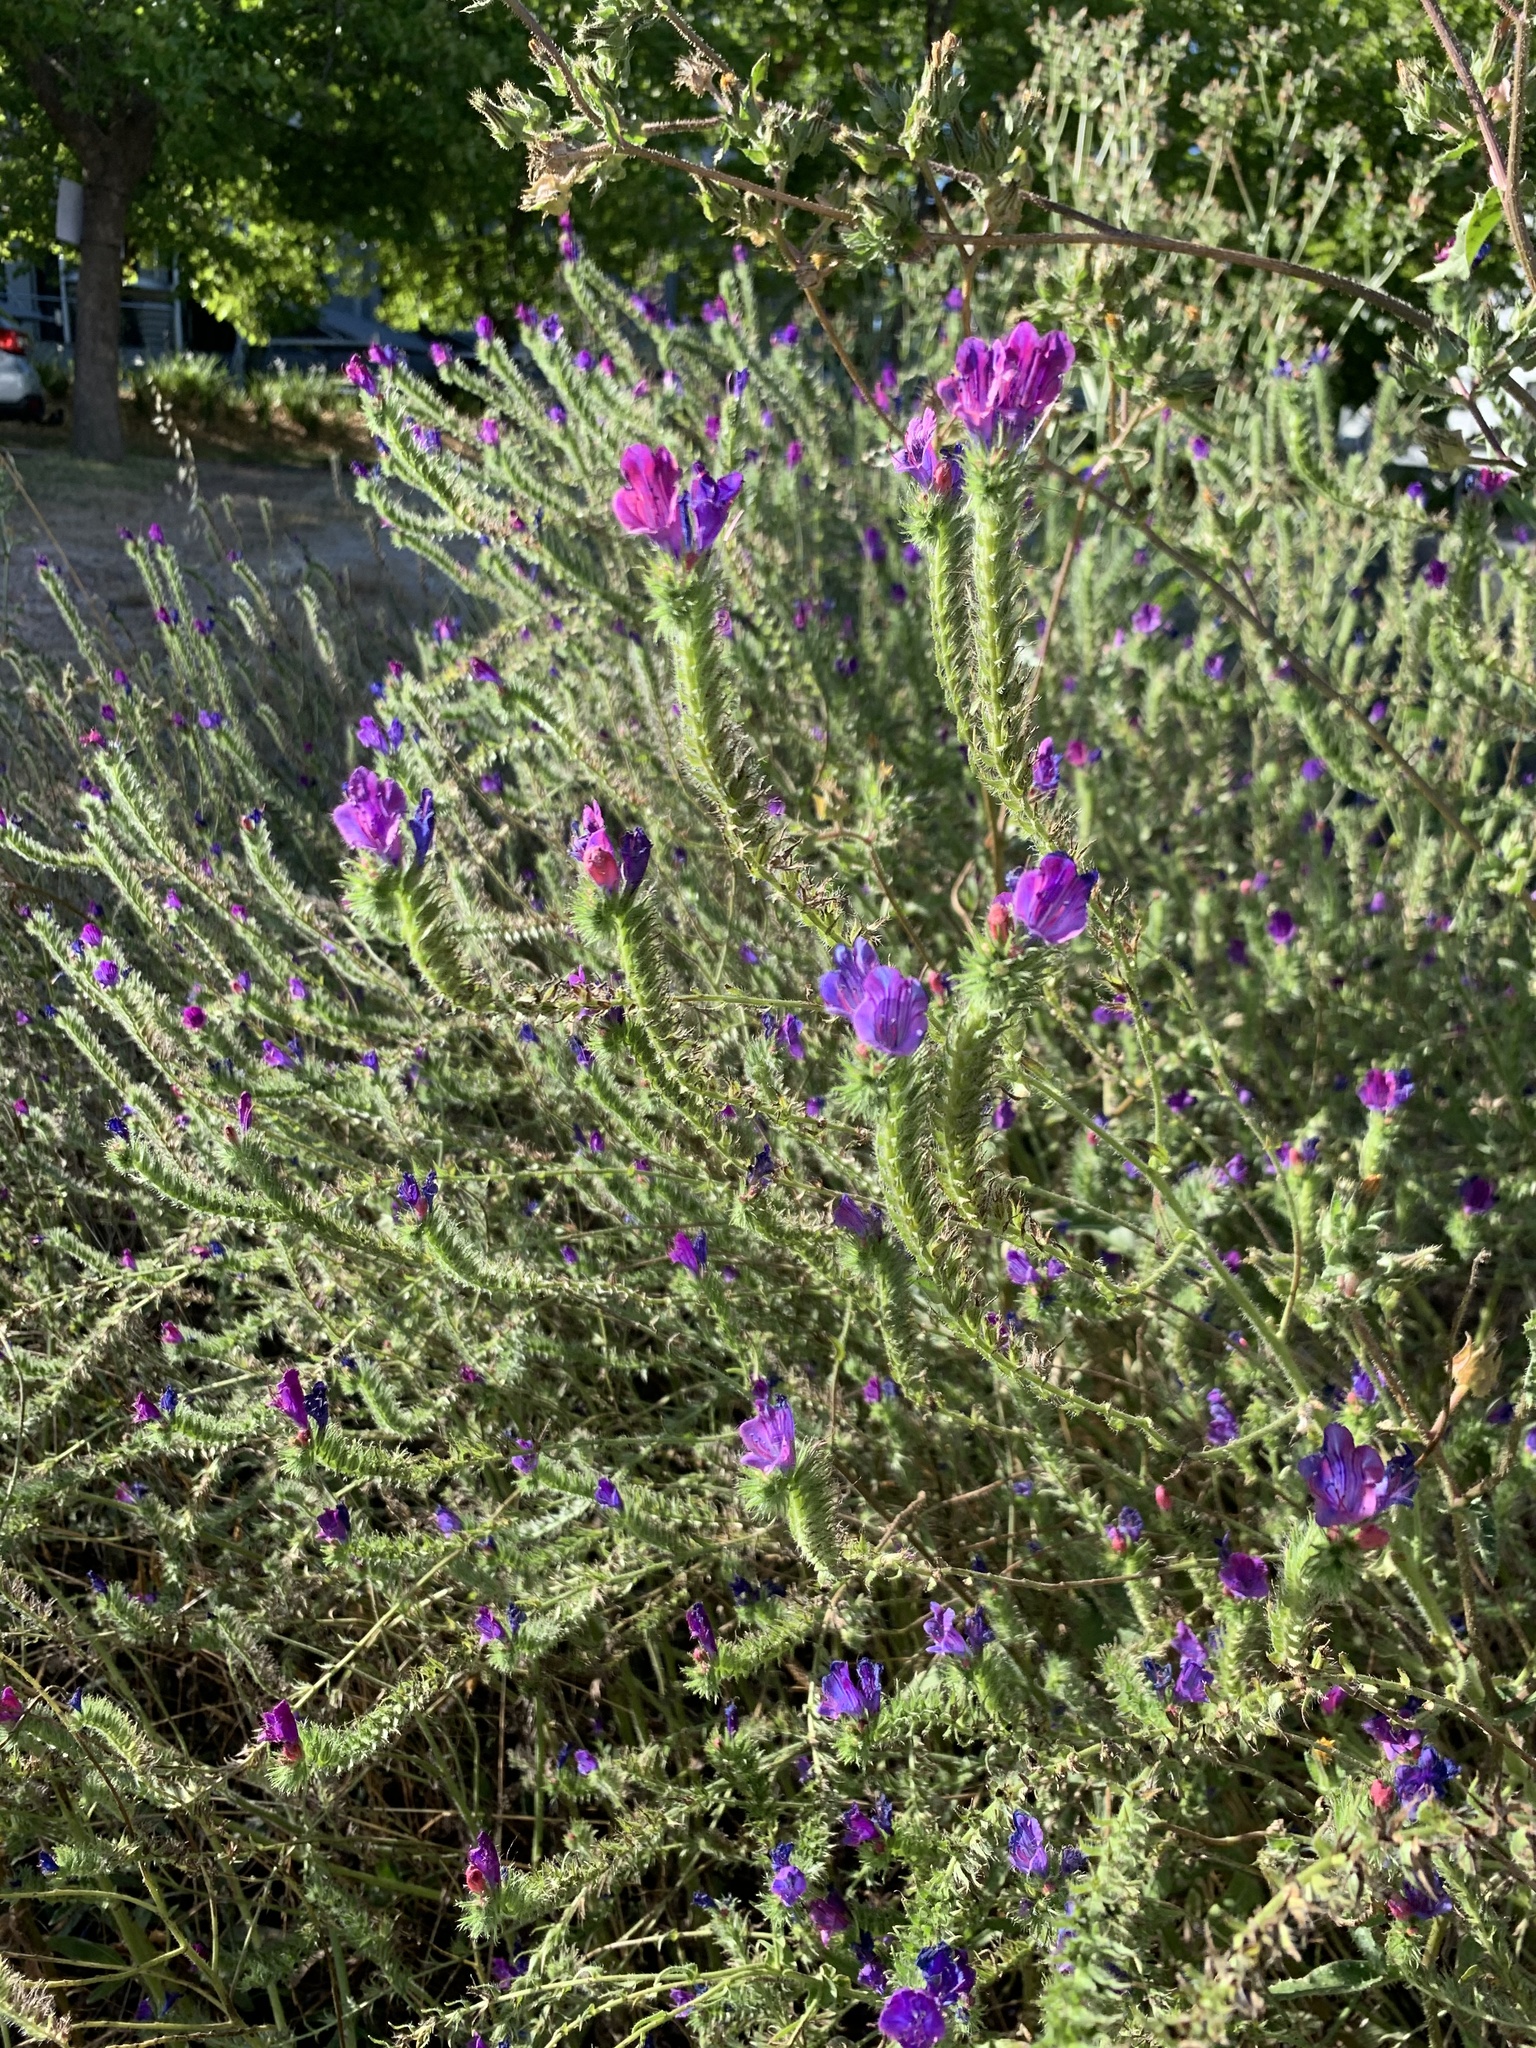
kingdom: Plantae
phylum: Tracheophyta
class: Magnoliopsida
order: Boraginales
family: Boraginaceae
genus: Echium
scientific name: Echium plantagineum
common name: Purple viper's-bugloss
